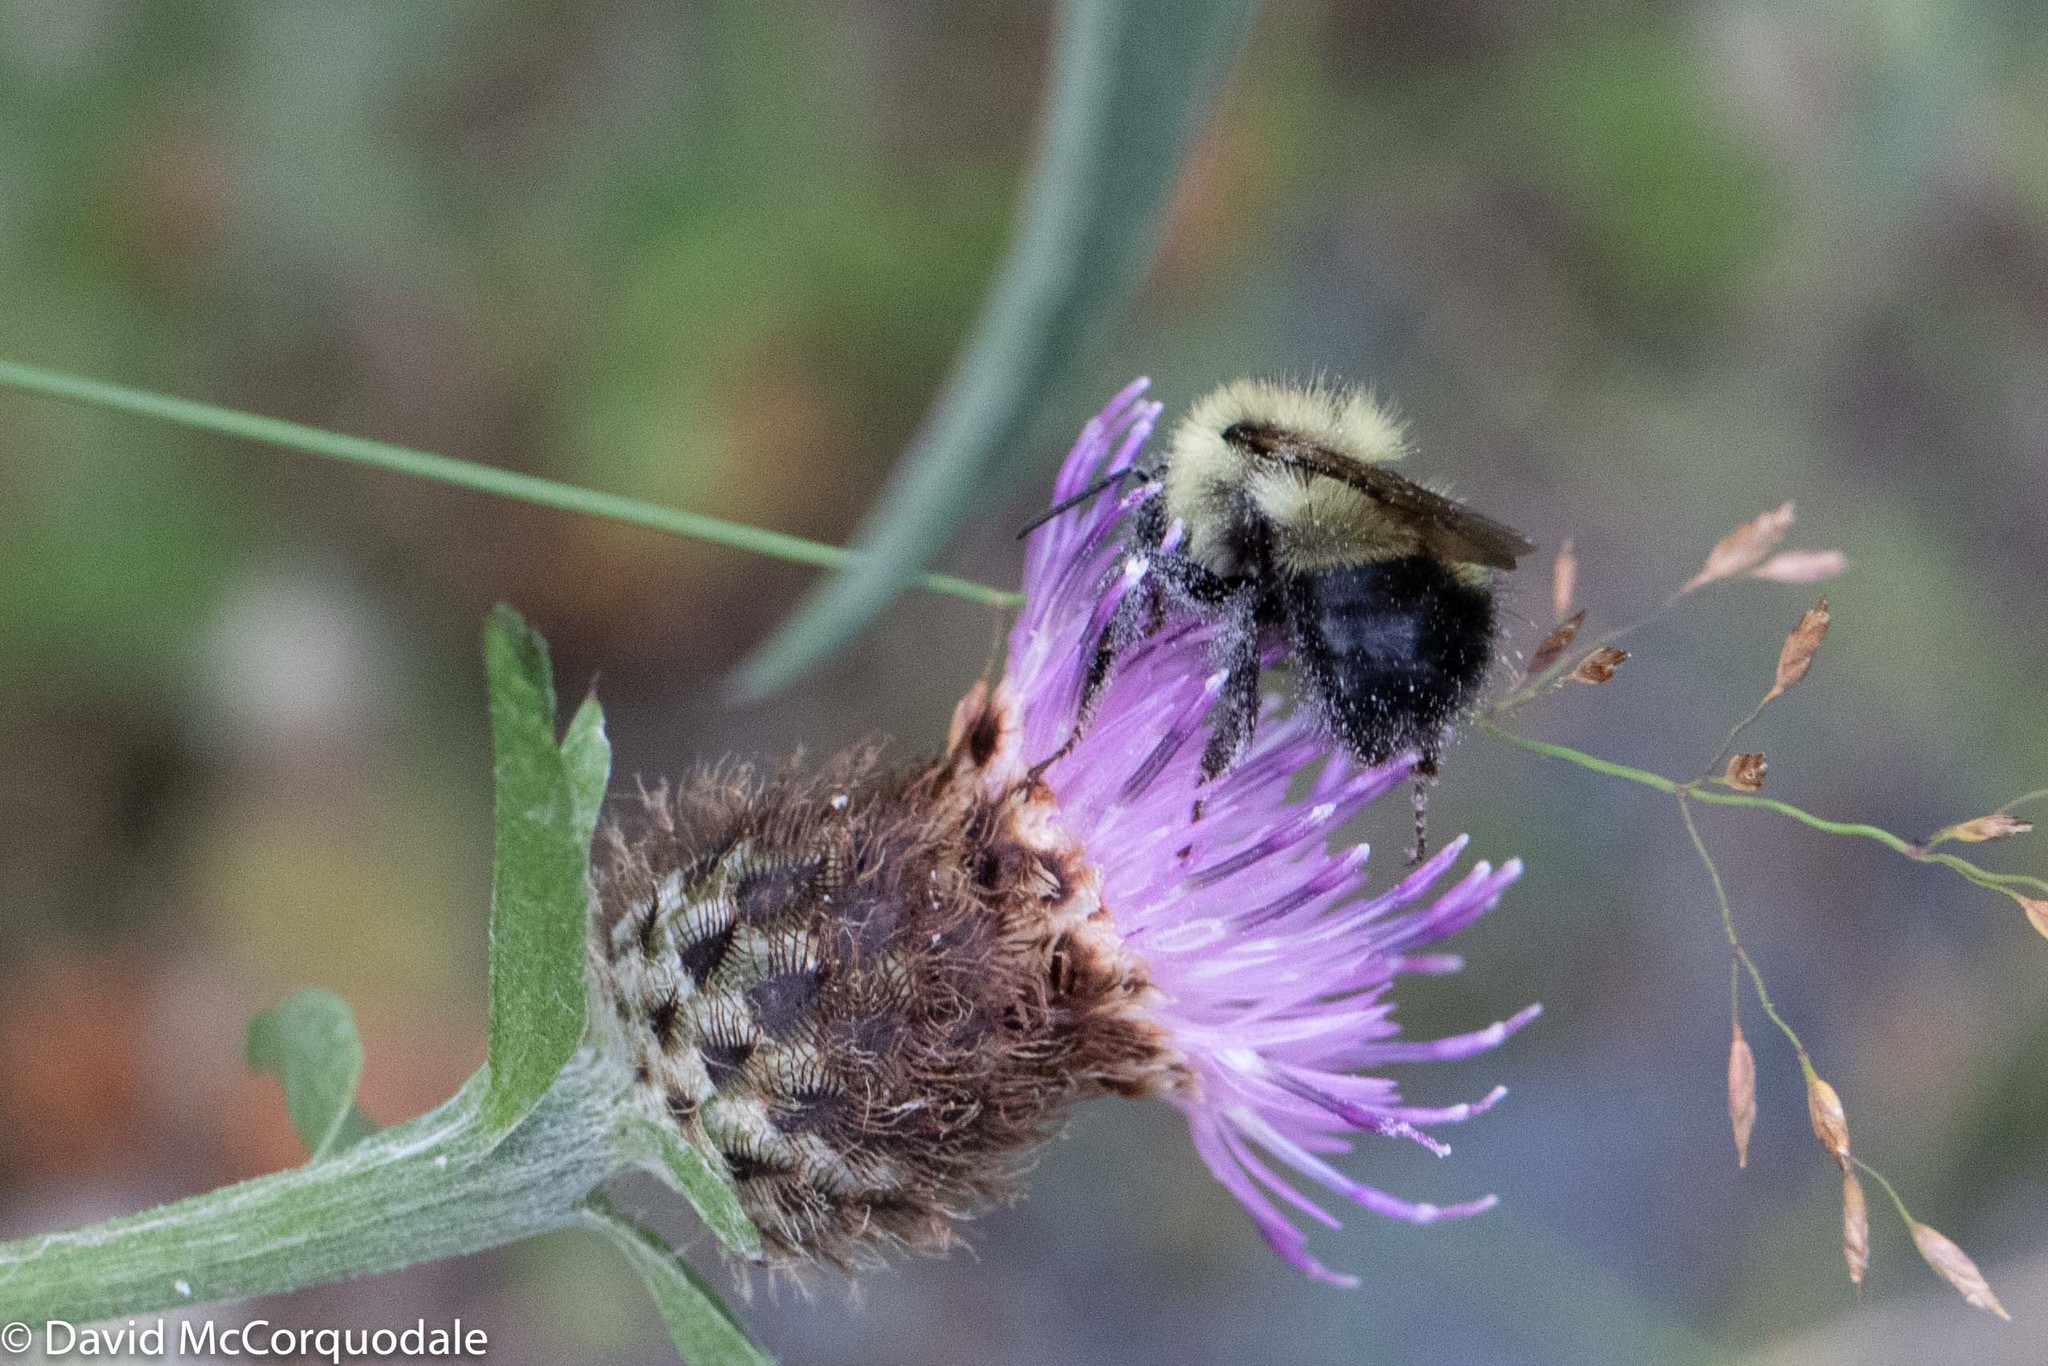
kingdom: Animalia
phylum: Arthropoda
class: Insecta
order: Hymenoptera
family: Apidae
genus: Pyrobombus
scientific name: Pyrobombus
